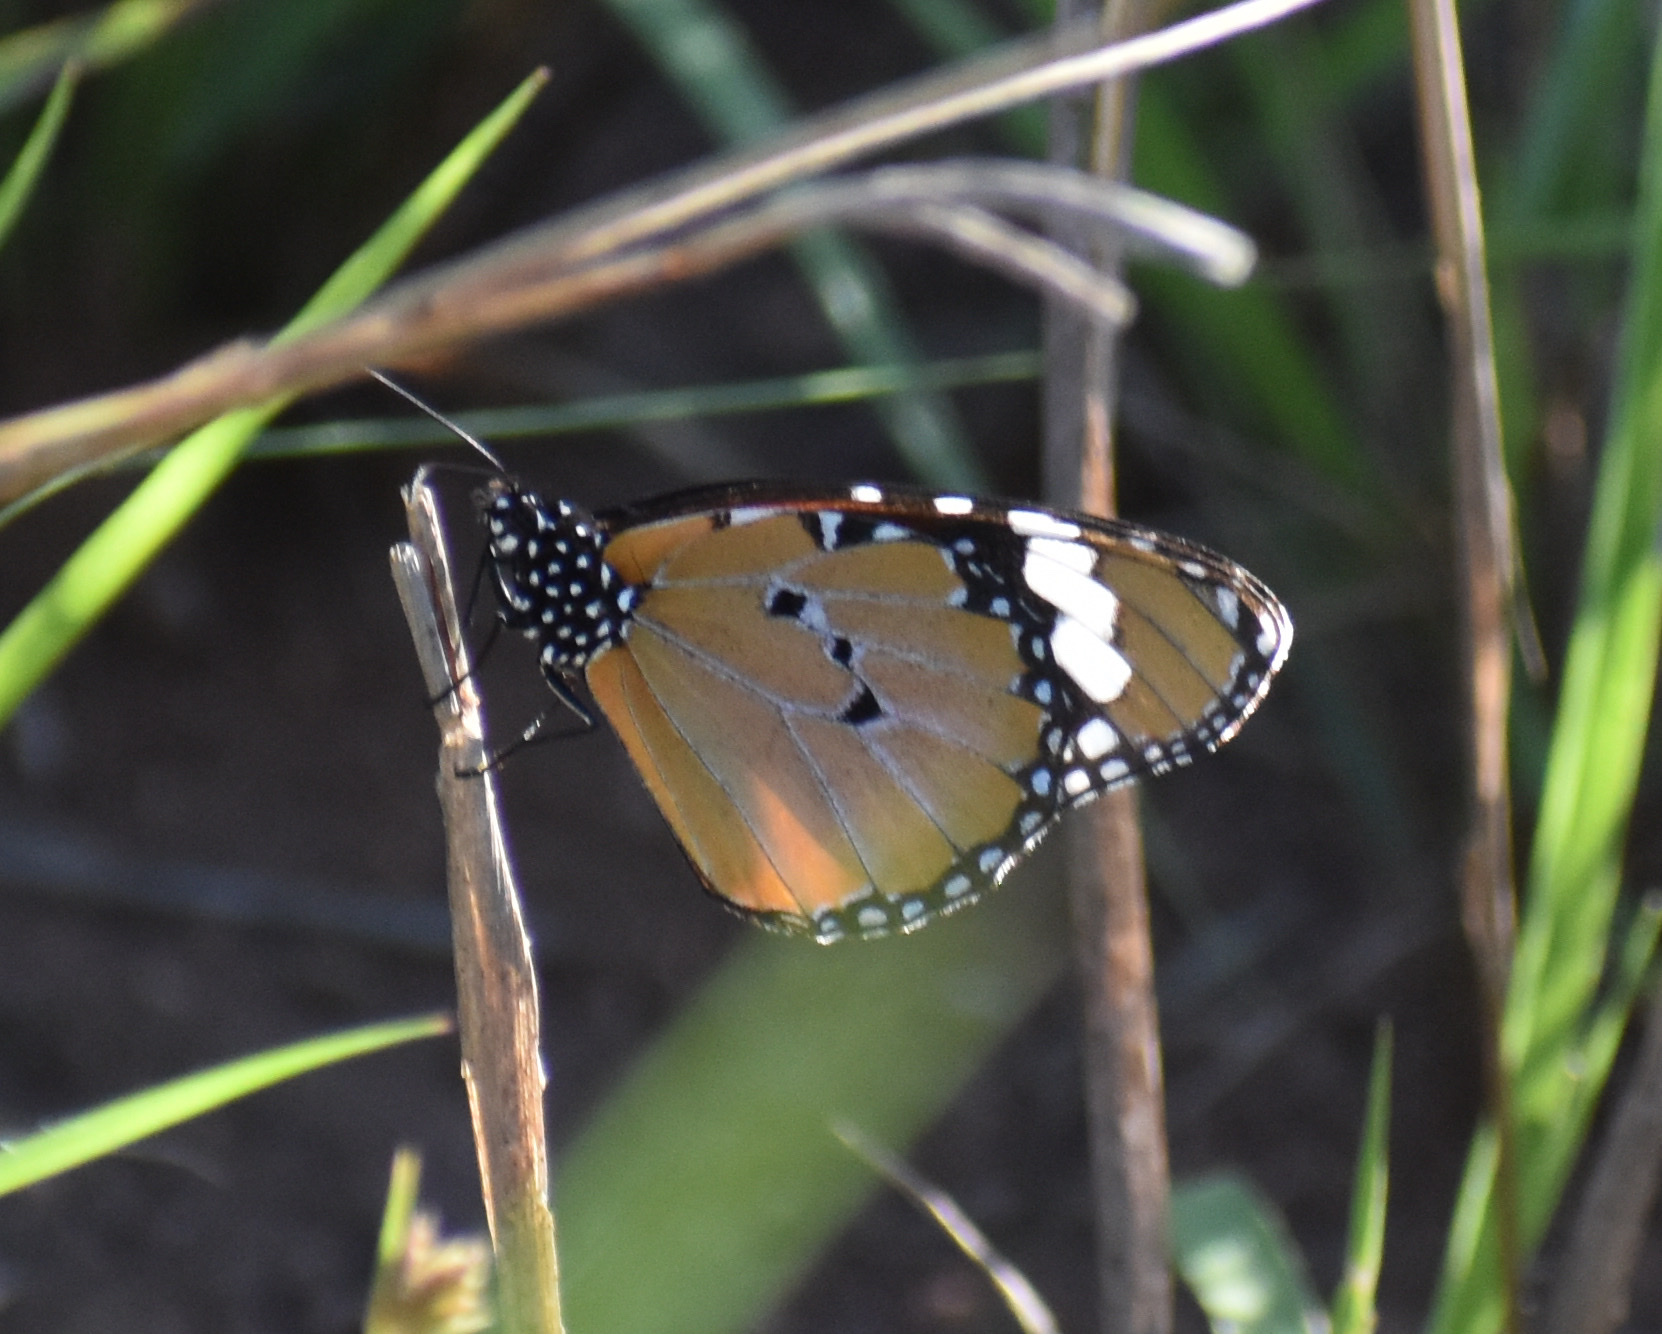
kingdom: Animalia
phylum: Arthropoda
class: Insecta
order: Lepidoptera
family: Nymphalidae
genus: Danaus
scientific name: Danaus chrysippus
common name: Plain tiger
